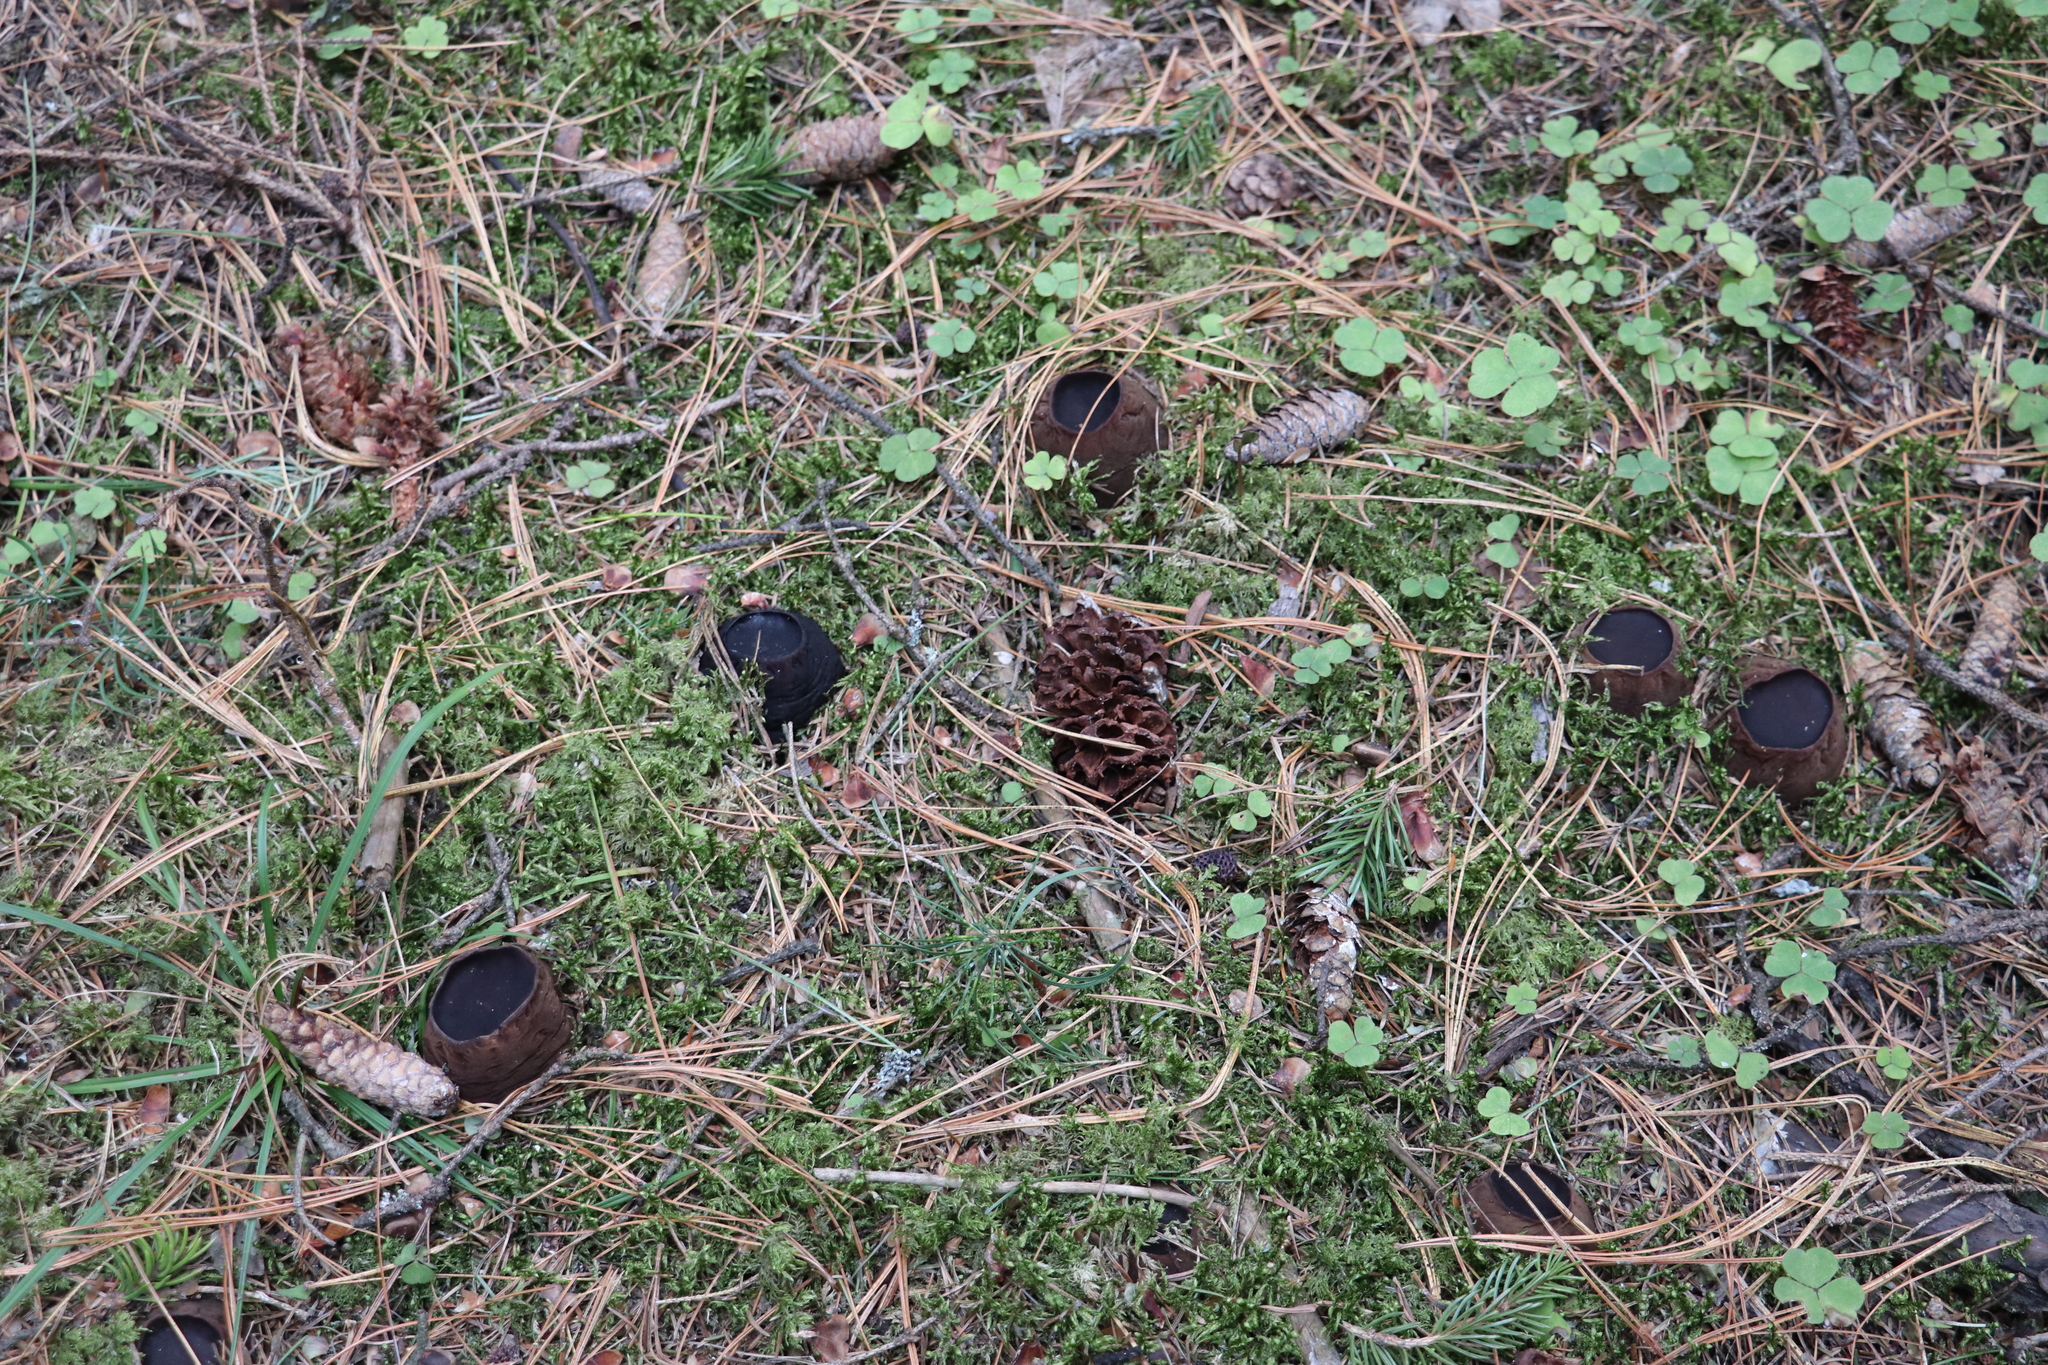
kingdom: Fungi
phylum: Ascomycota
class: Pezizomycetes
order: Pezizales
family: Sarcosomataceae
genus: Sarcosoma
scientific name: Sarcosoma globosum
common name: Charred-pancake cup
